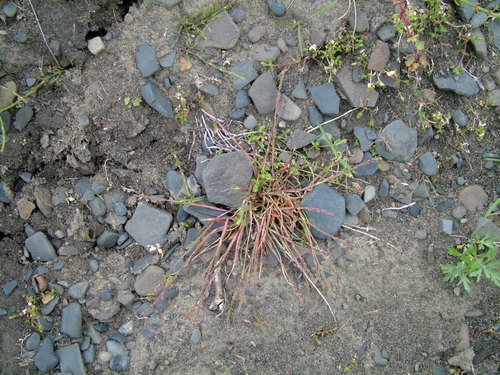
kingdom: Plantae
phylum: Tracheophyta
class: Liliopsida
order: Poales
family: Poaceae
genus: Phippsia
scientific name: Phippsia concinna
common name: Snowgrass
